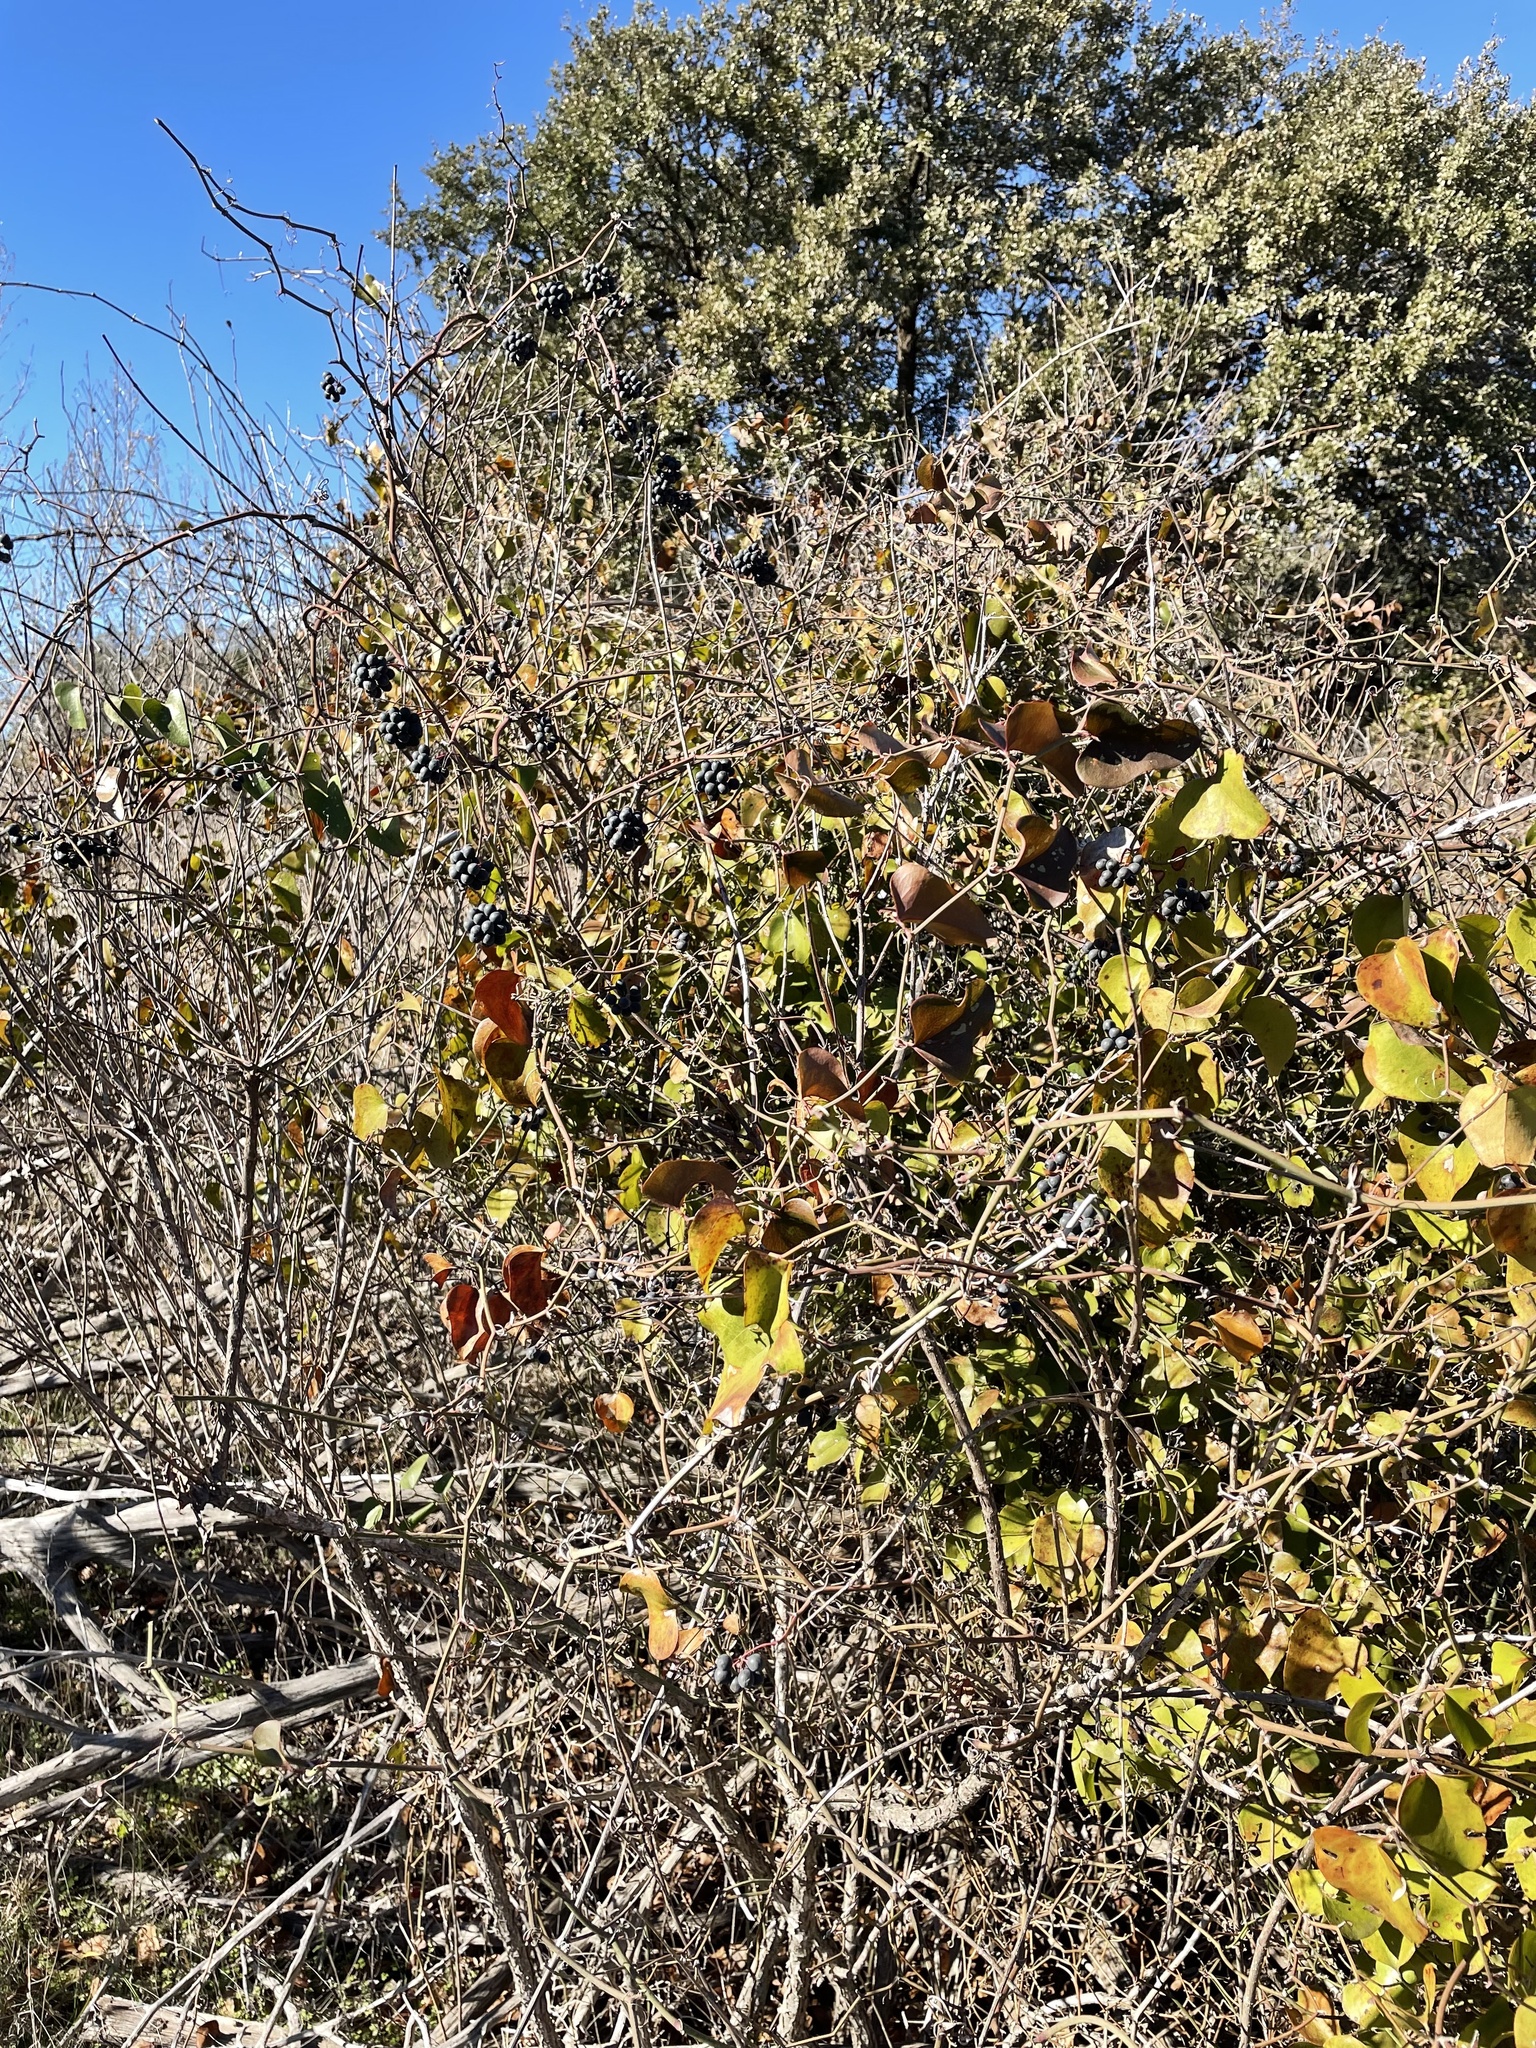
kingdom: Plantae
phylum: Tracheophyta
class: Liliopsida
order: Liliales
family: Smilacaceae
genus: Smilax
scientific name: Smilax bona-nox
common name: Catbrier
